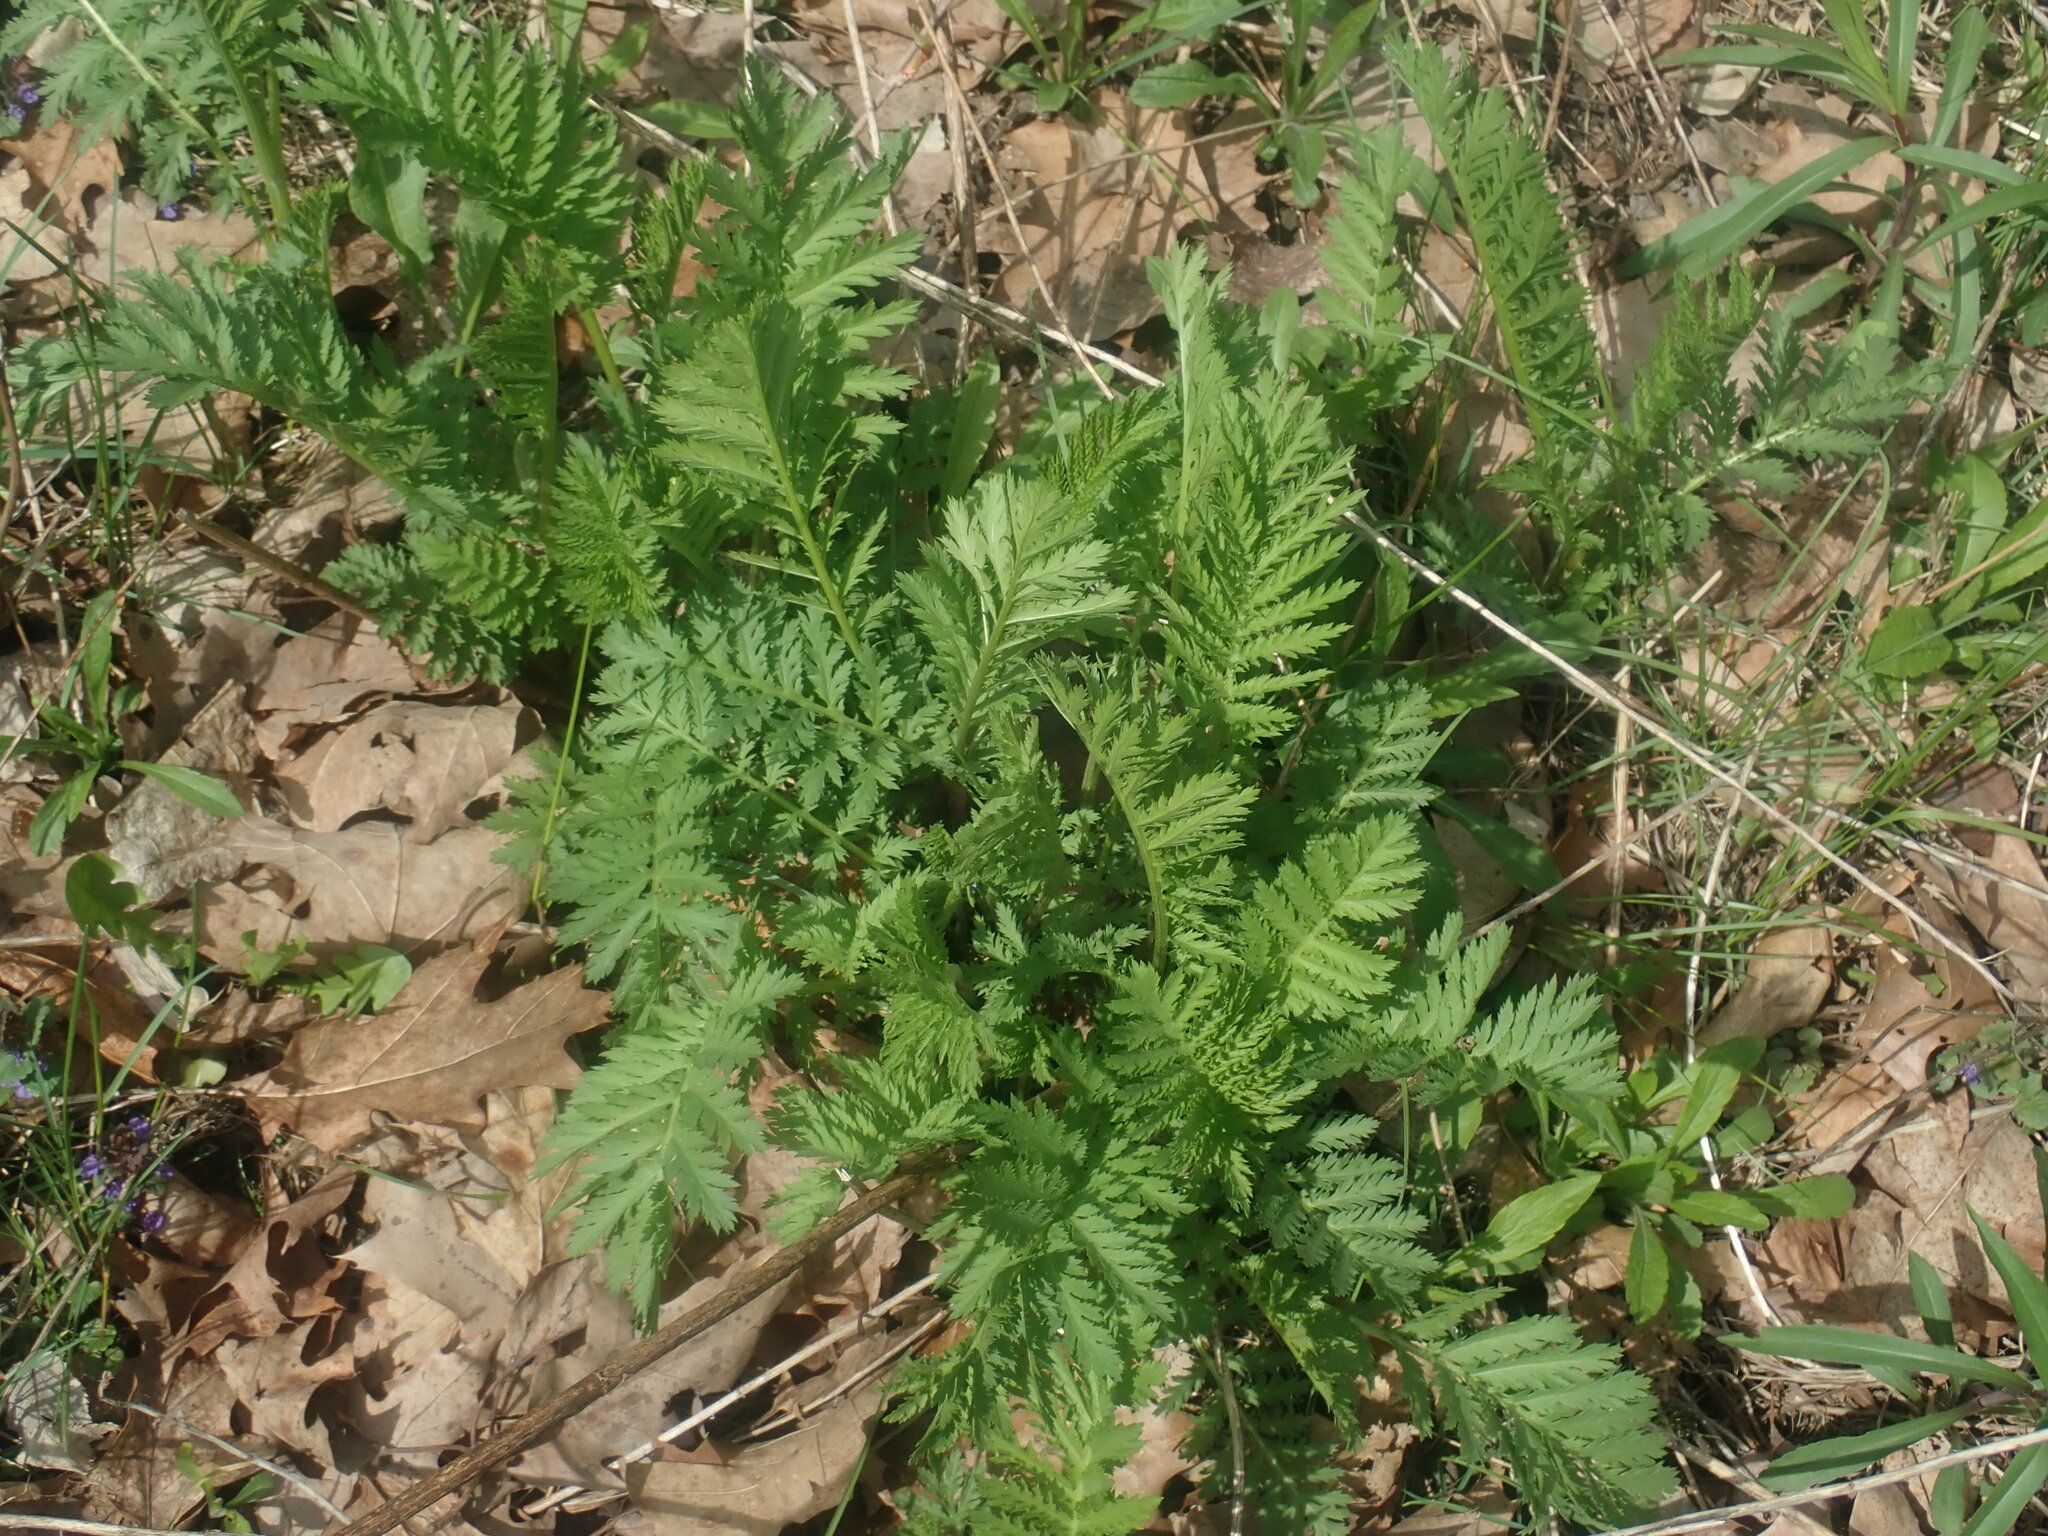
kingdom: Plantae
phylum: Tracheophyta
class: Magnoliopsida
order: Asterales
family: Asteraceae
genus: Tanacetum
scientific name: Tanacetum vulgare
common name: Common tansy
